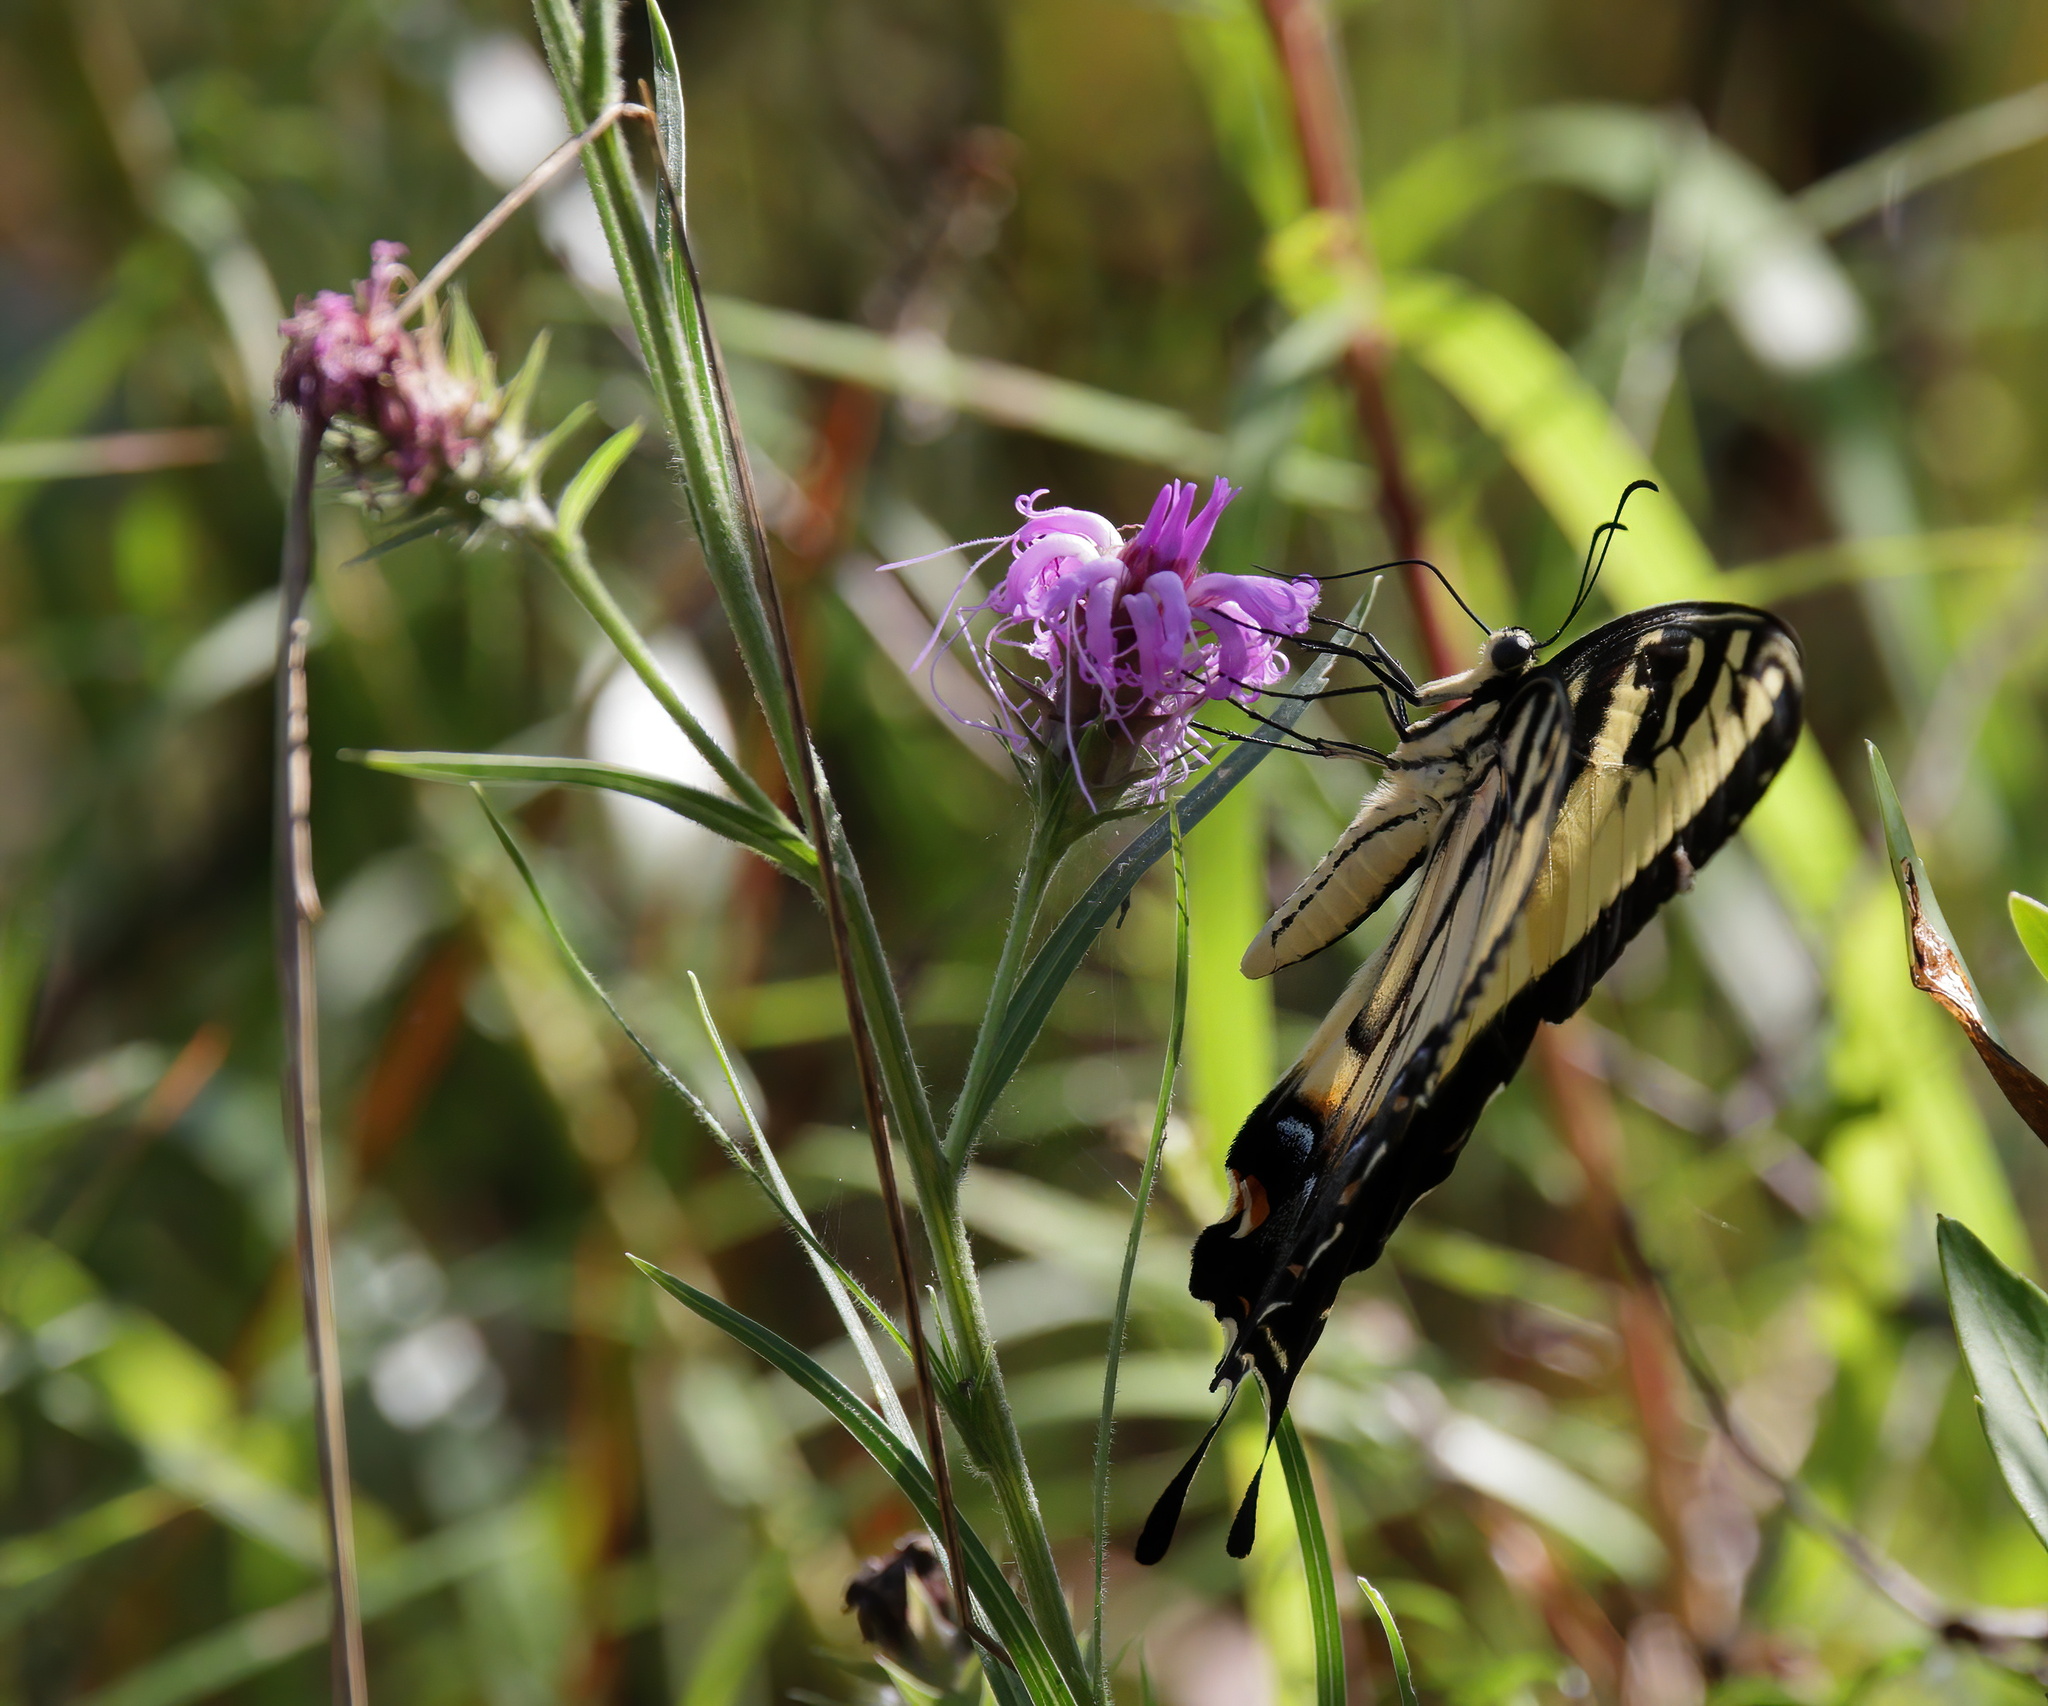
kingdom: Animalia
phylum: Arthropoda
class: Insecta
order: Lepidoptera
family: Papilionidae
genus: Papilio
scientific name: Papilio glaucus
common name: Tiger swallowtail
